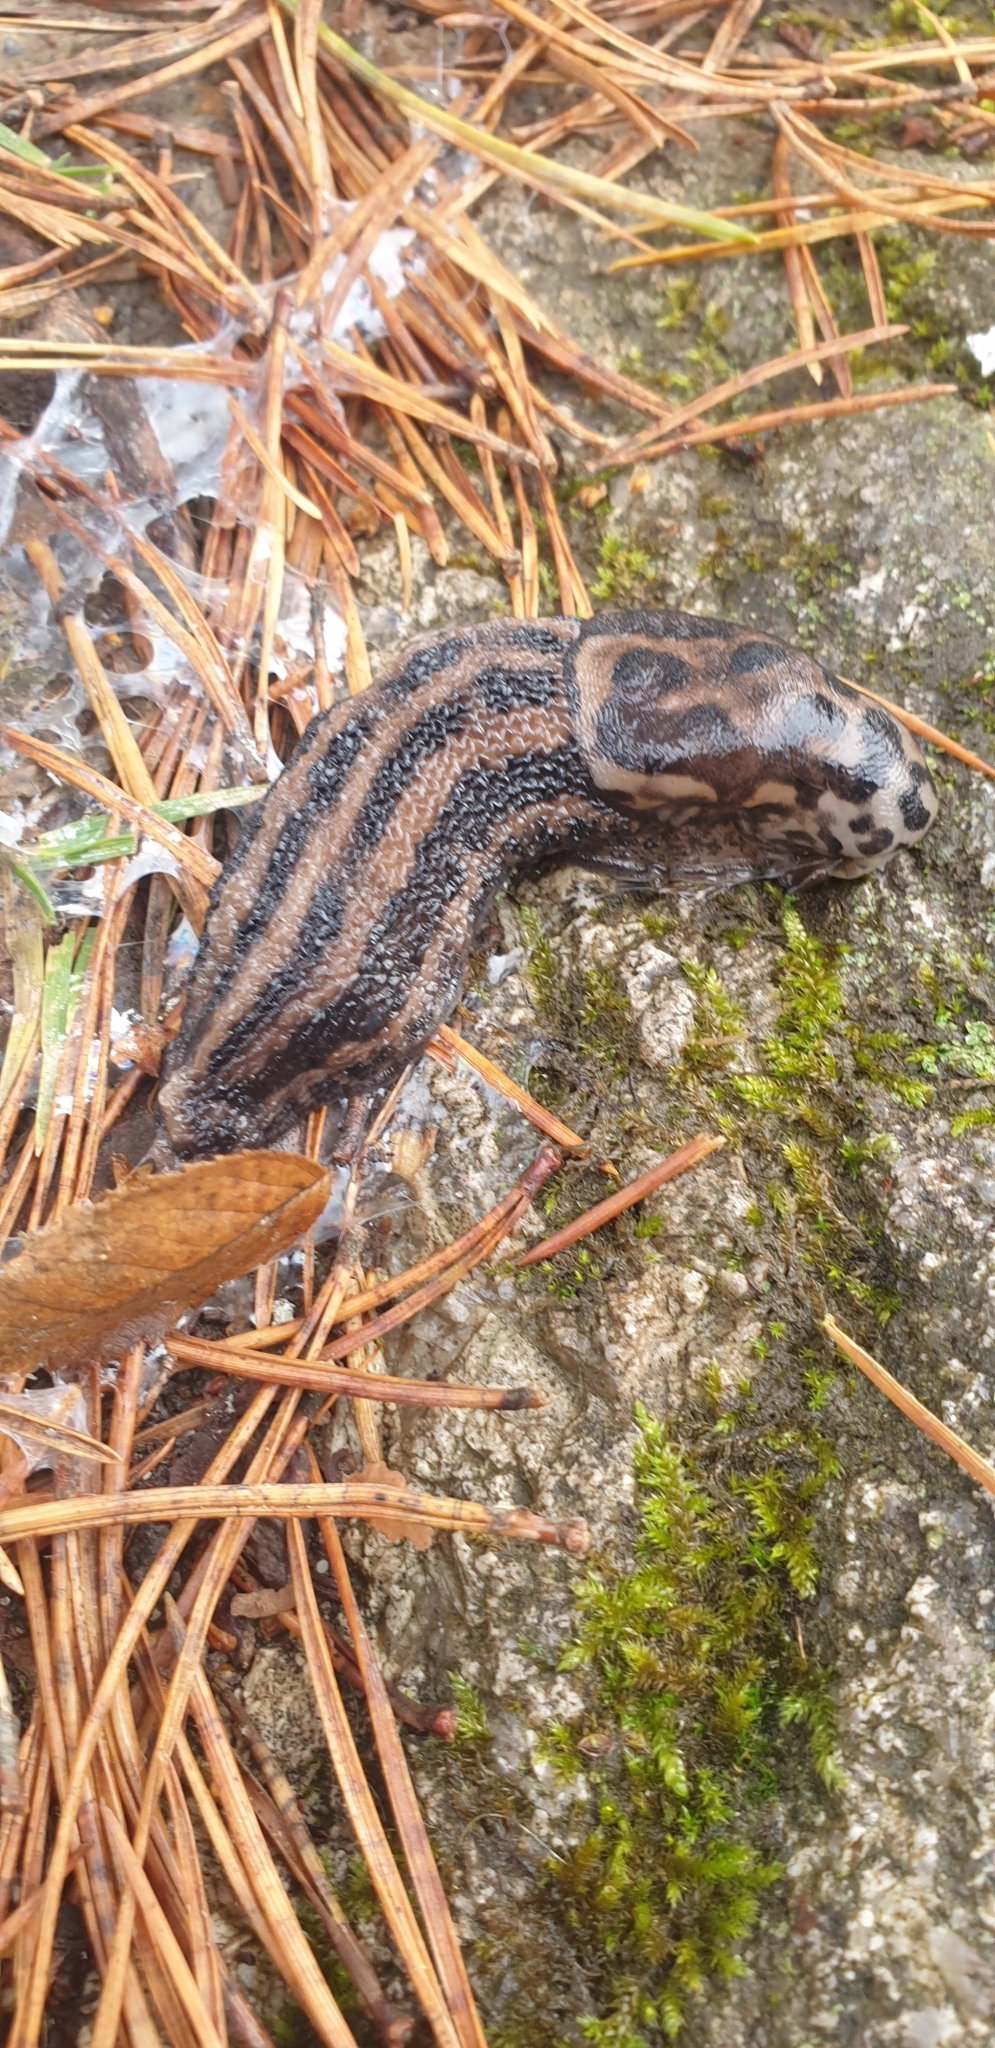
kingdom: Animalia
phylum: Mollusca
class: Gastropoda
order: Stylommatophora
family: Limacidae
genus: Limax
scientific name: Limax maximus
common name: Great grey slug
